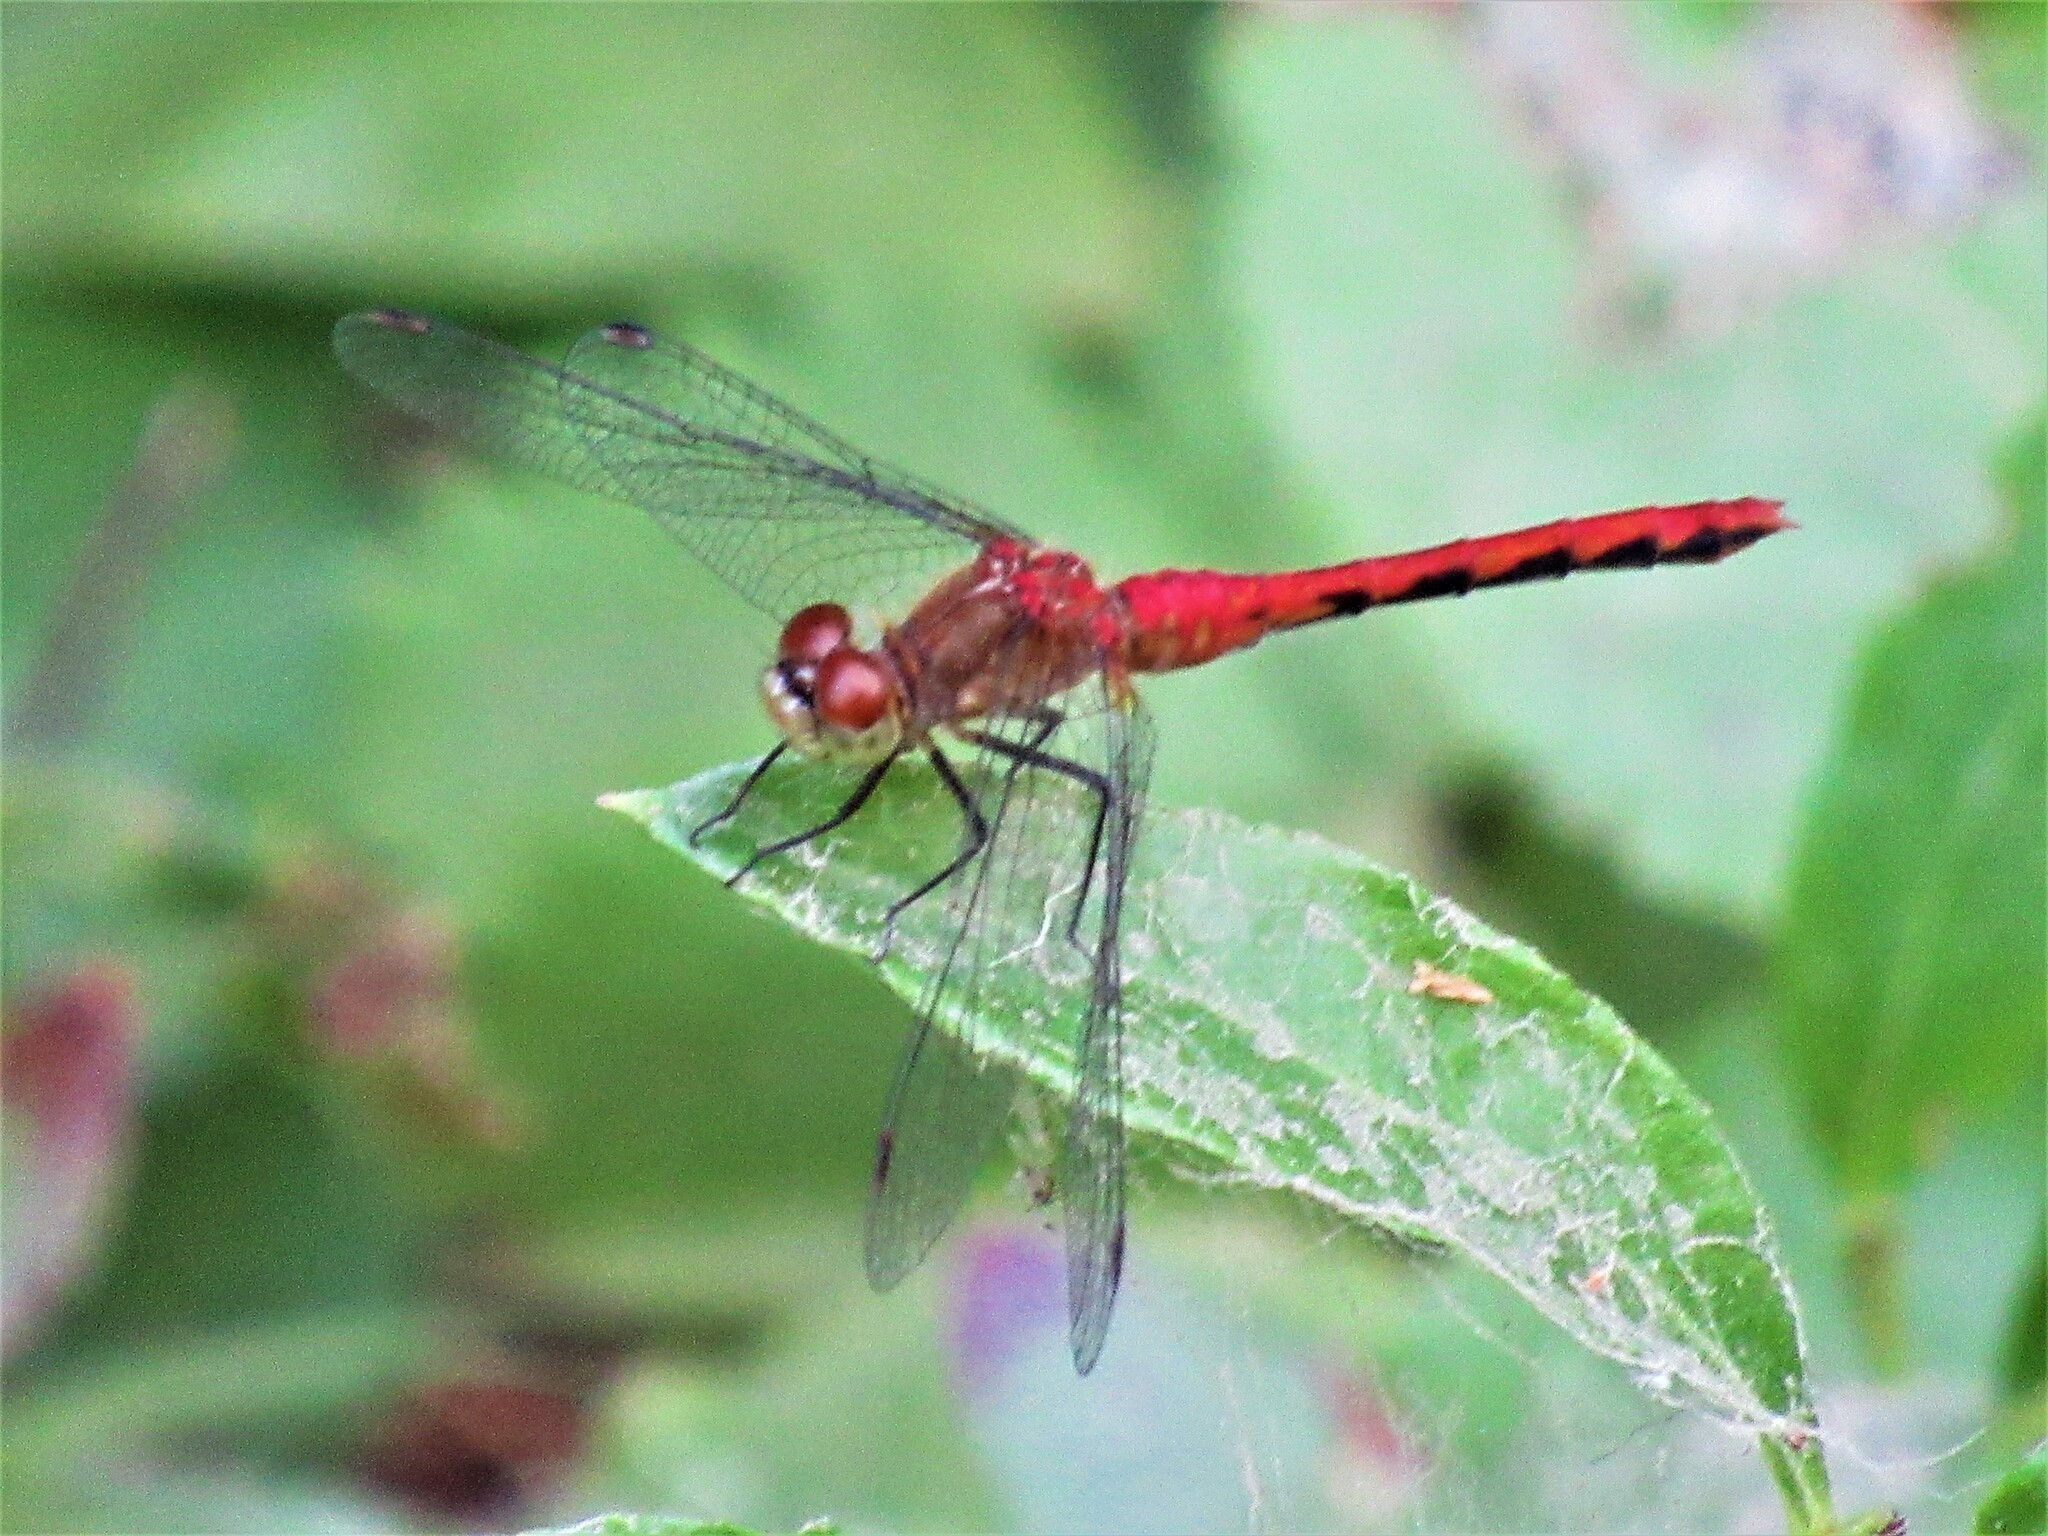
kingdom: Animalia
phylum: Arthropoda
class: Insecta
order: Odonata
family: Libellulidae
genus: Sympetrum
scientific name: Sympetrum obtrusum
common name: White-faced meadowhawk
